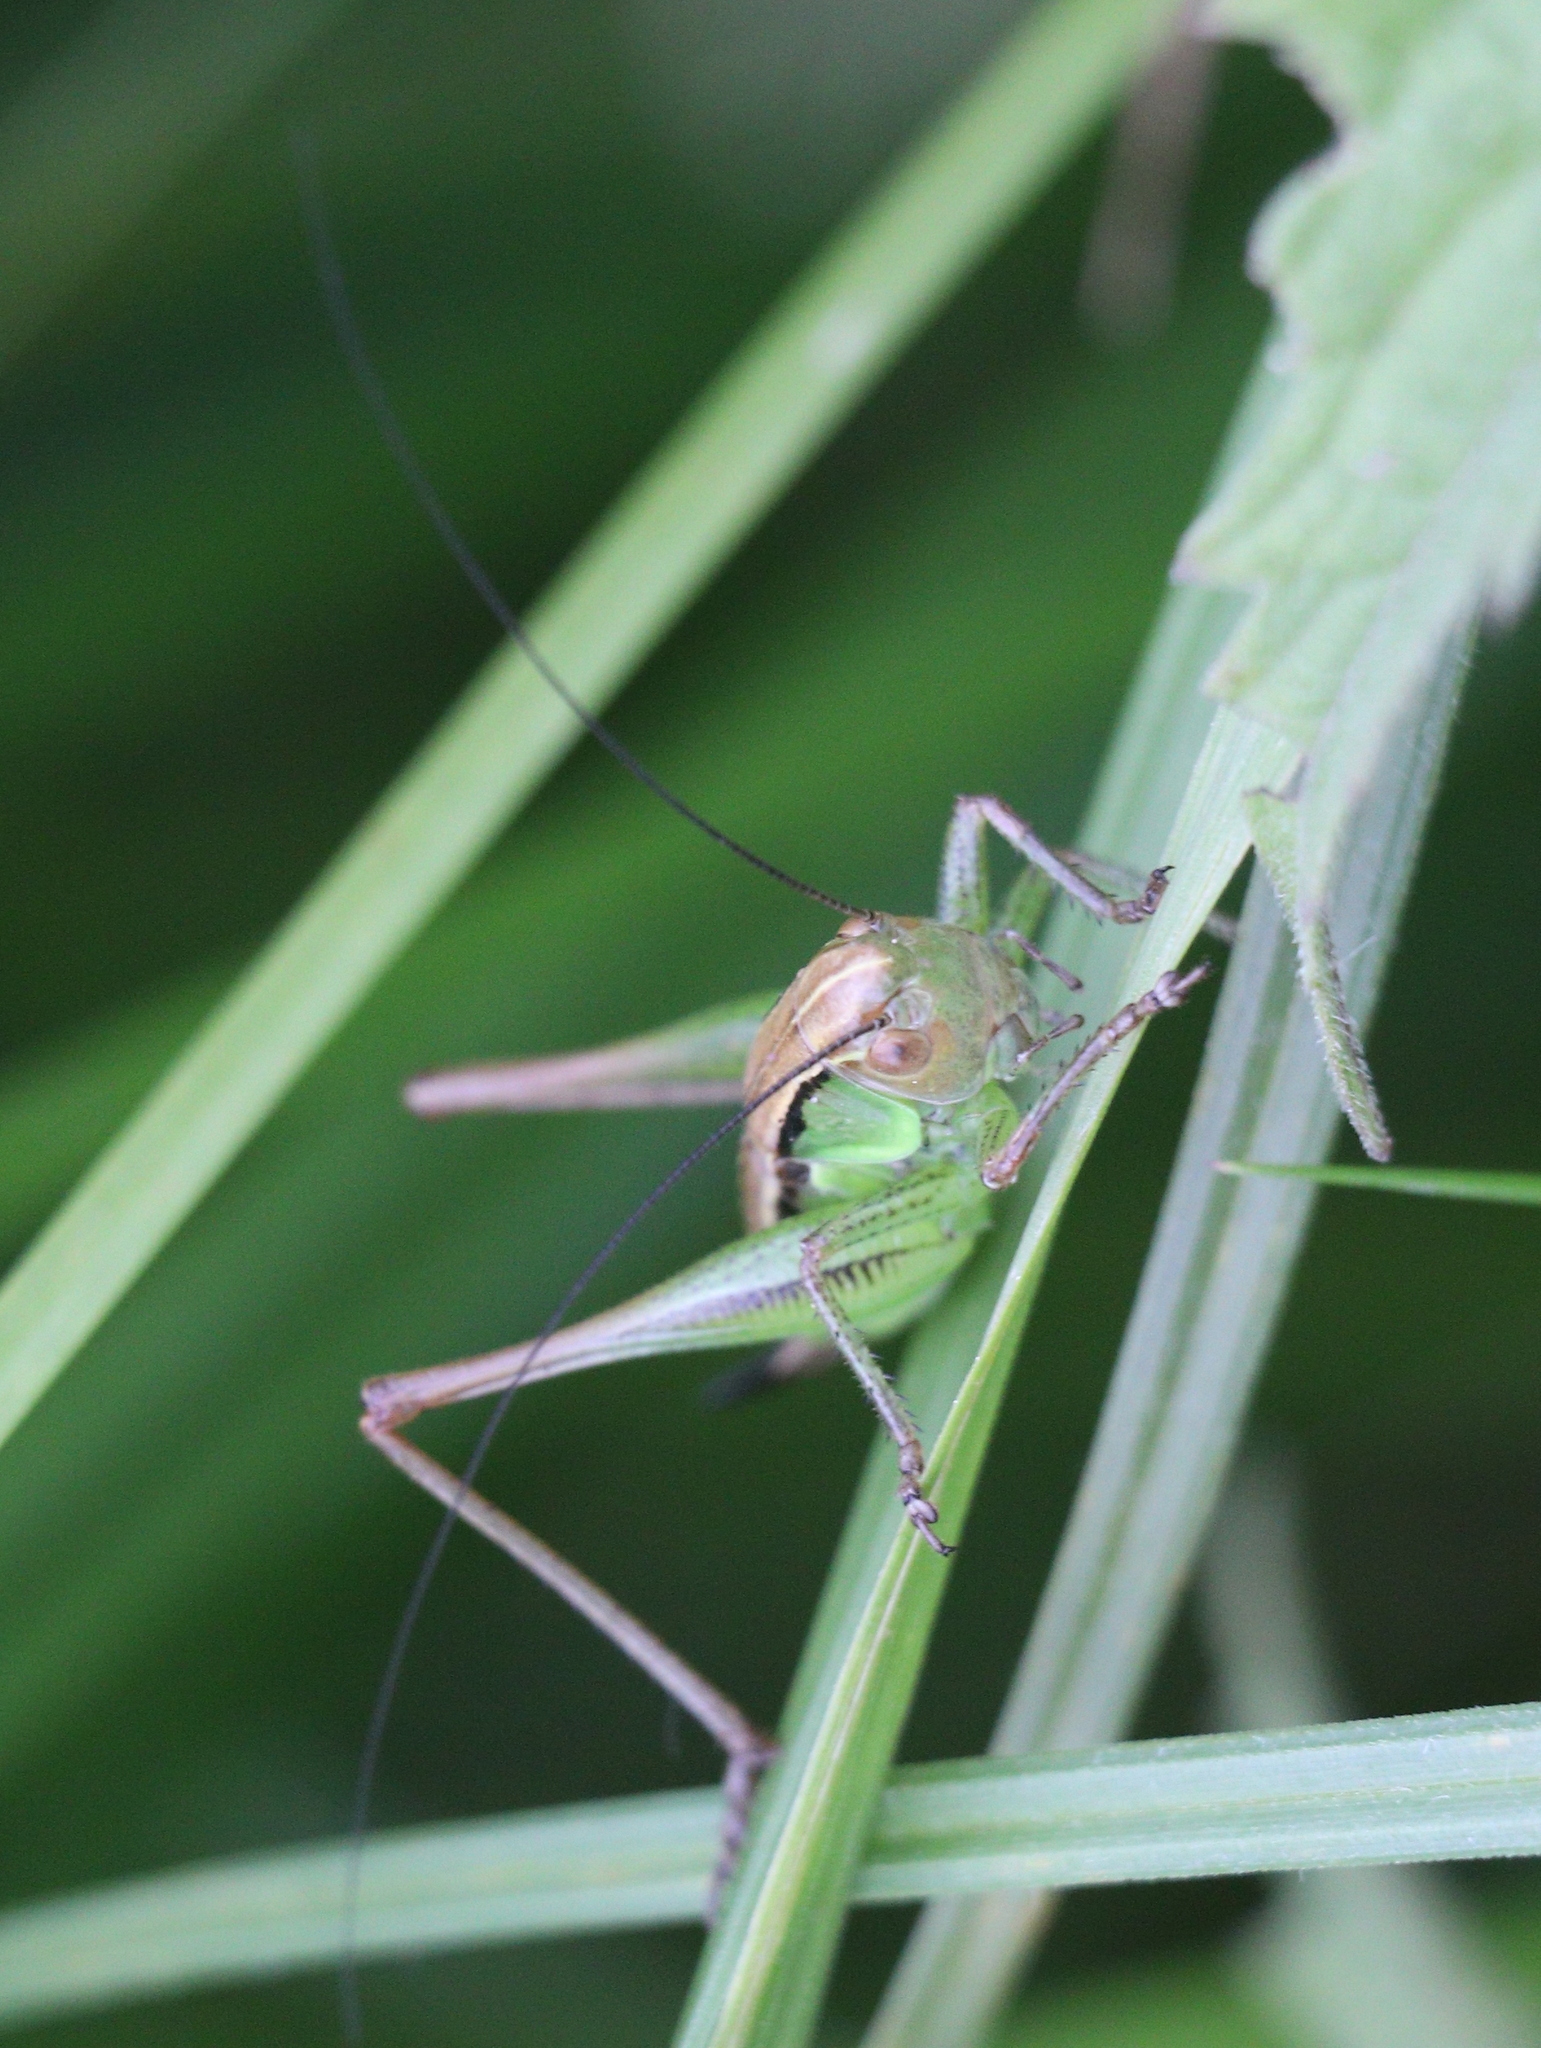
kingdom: Animalia
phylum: Arthropoda
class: Insecta
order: Orthoptera
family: Tettigoniidae
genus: Roeseliana
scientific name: Roeseliana roeselii
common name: Roesel's bush cricket
